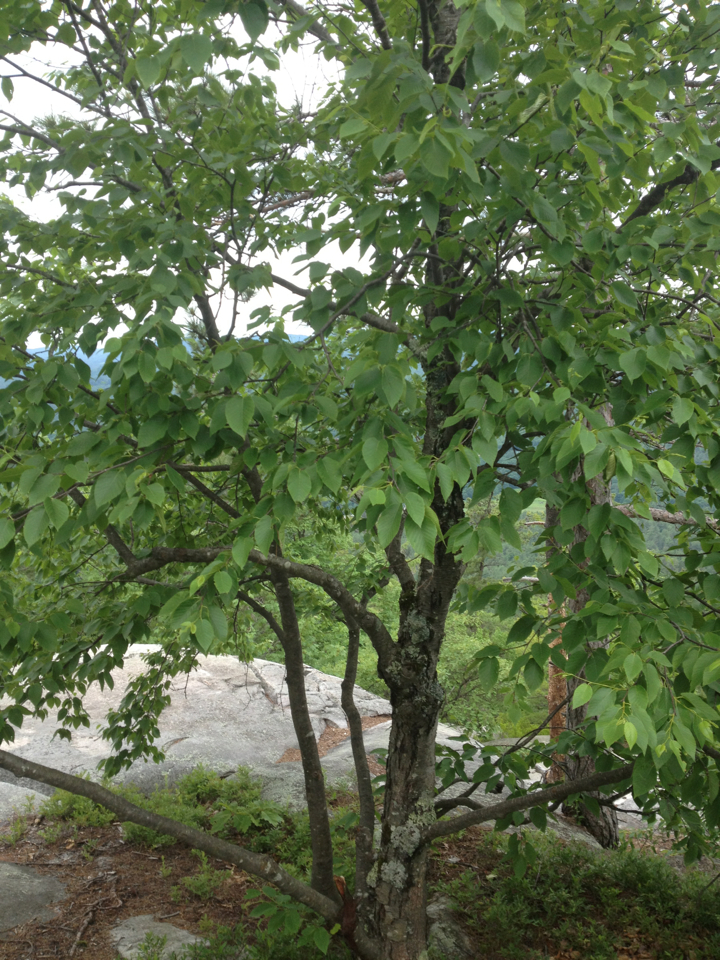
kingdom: Plantae
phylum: Tracheophyta
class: Magnoliopsida
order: Fagales
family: Betulaceae
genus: Betula
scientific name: Betula lenta
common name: Black birch
